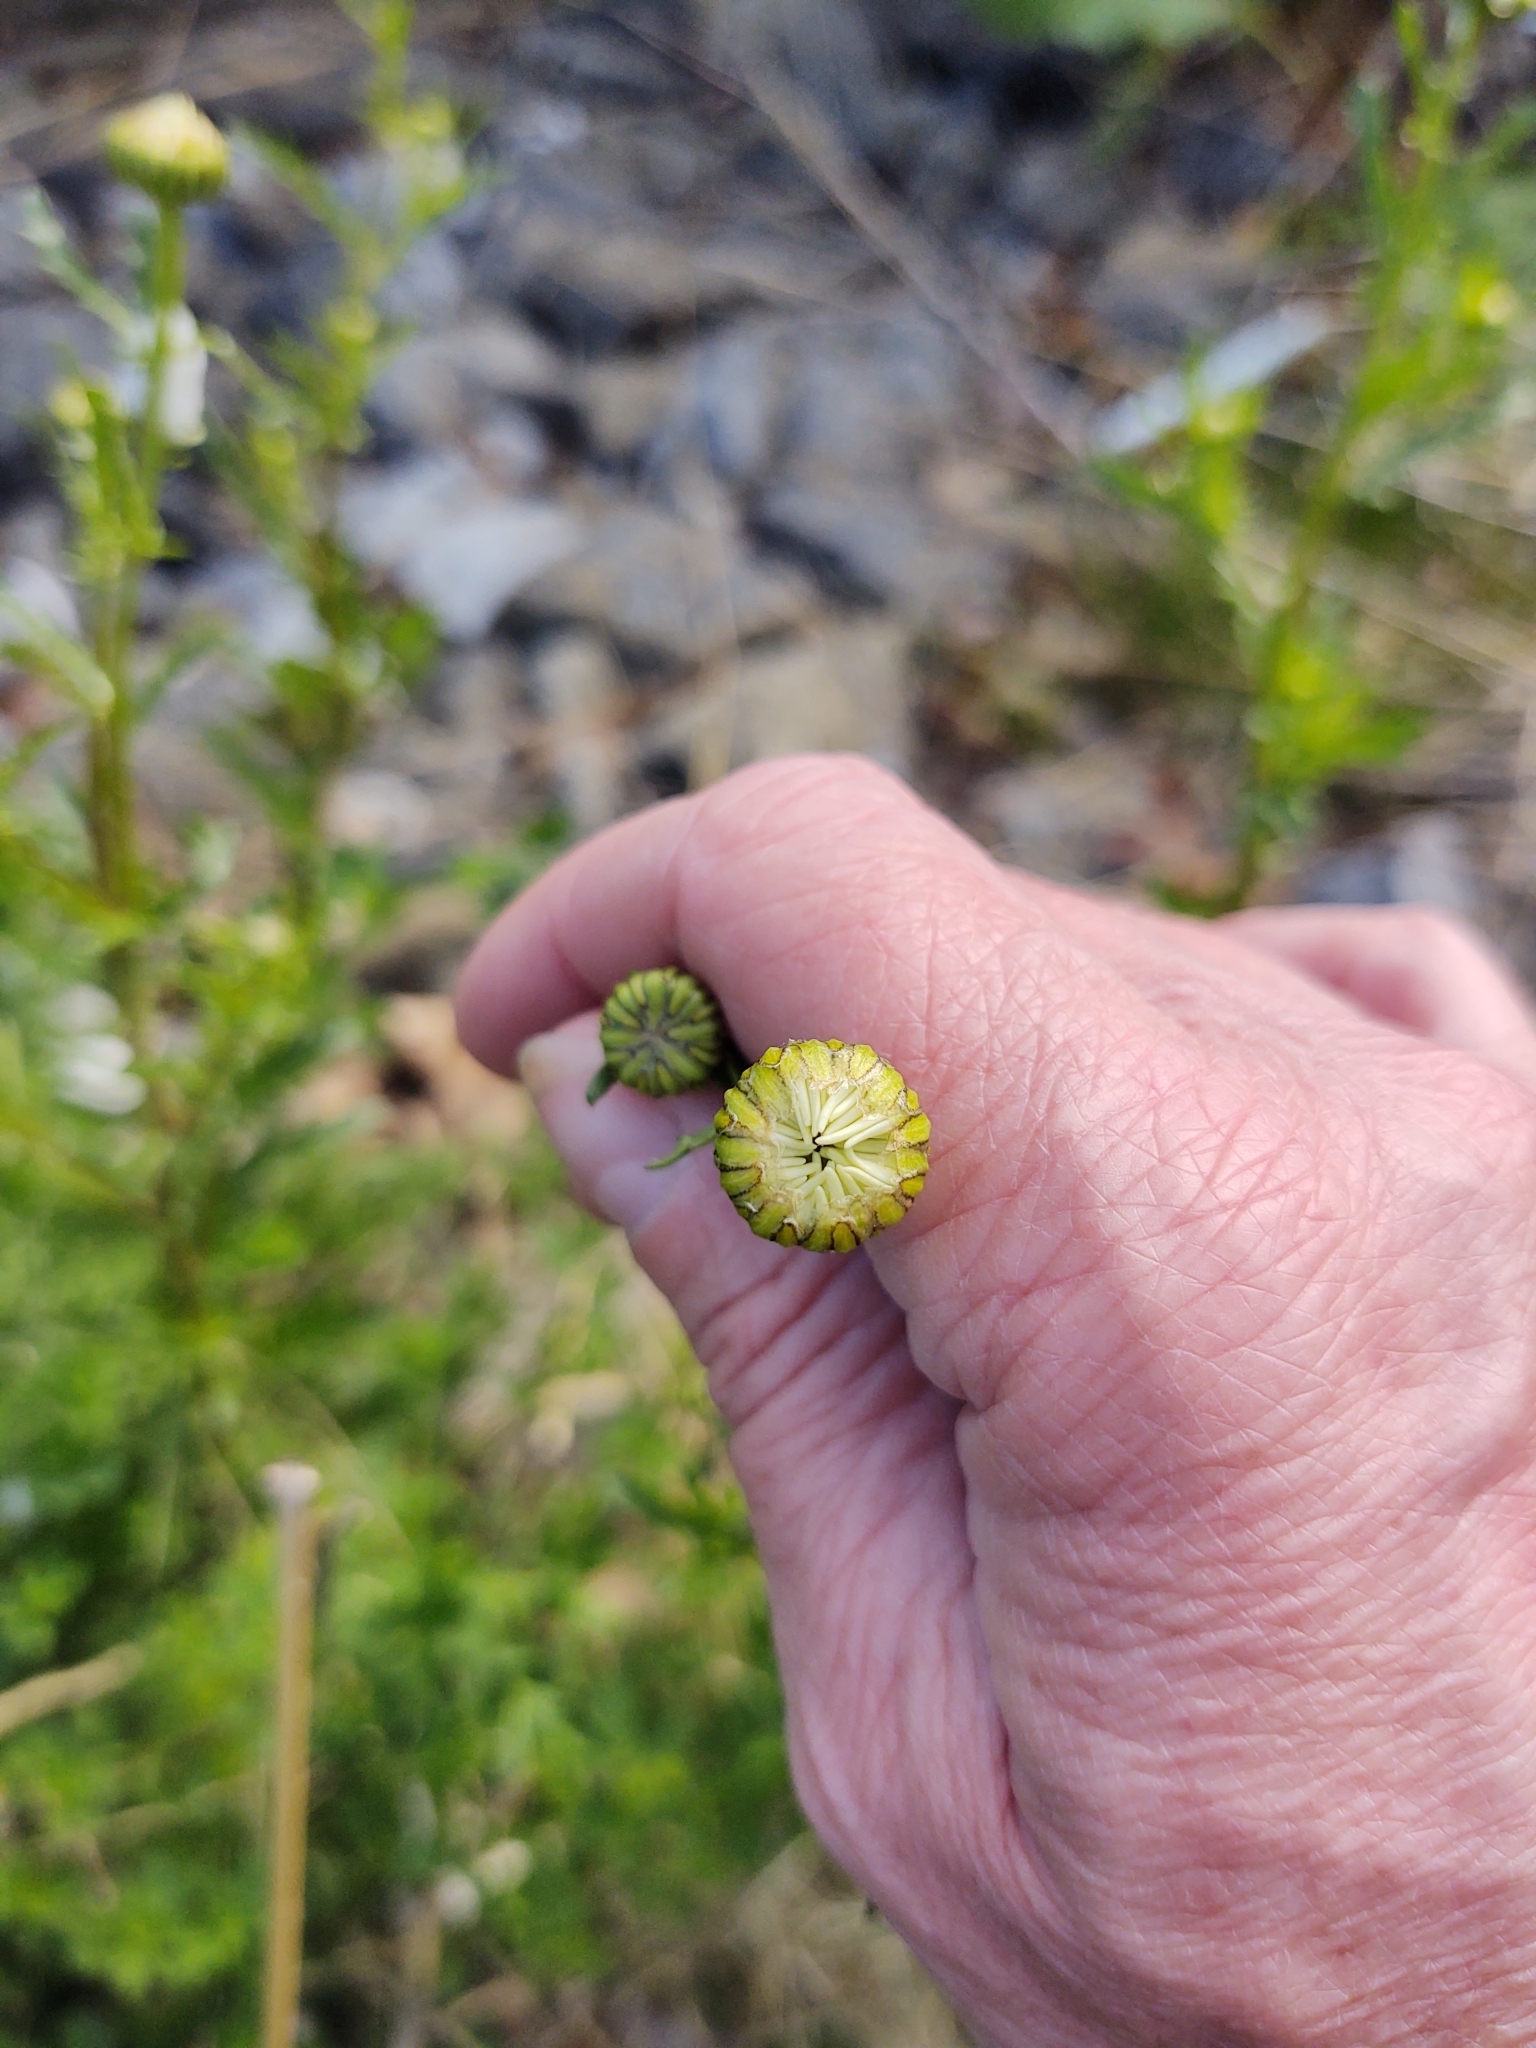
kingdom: Plantae
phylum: Tracheophyta
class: Magnoliopsida
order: Asterales
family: Asteraceae
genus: Leucanthemum
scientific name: Leucanthemum vulgare
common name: Oxeye daisy
